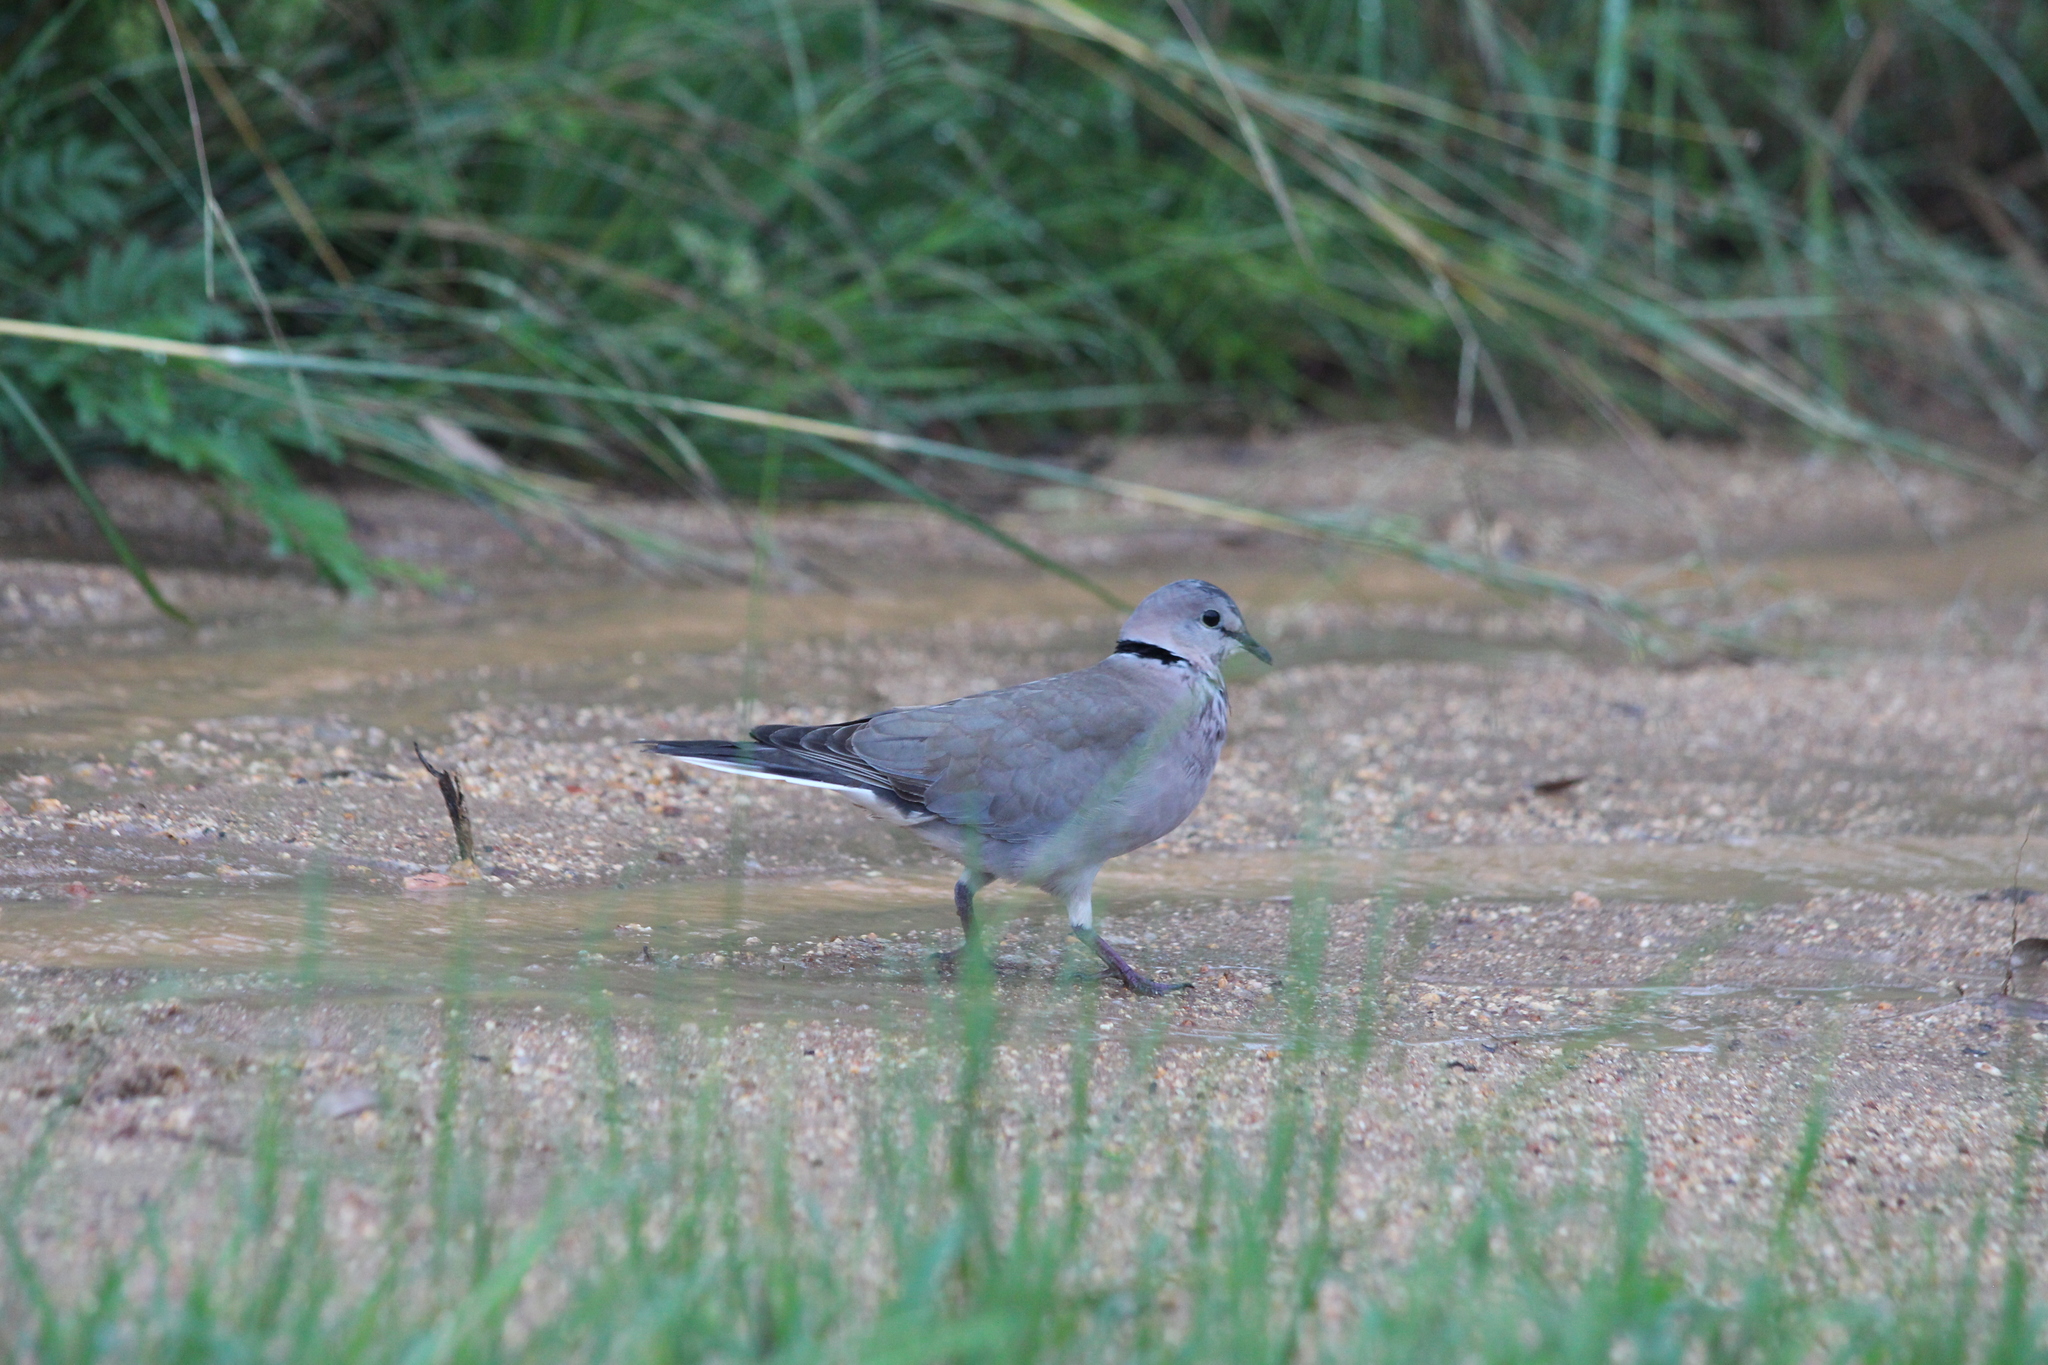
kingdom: Animalia
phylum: Chordata
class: Aves
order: Columbiformes
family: Columbidae
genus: Streptopelia
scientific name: Streptopelia capicola
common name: Ring-necked dove
